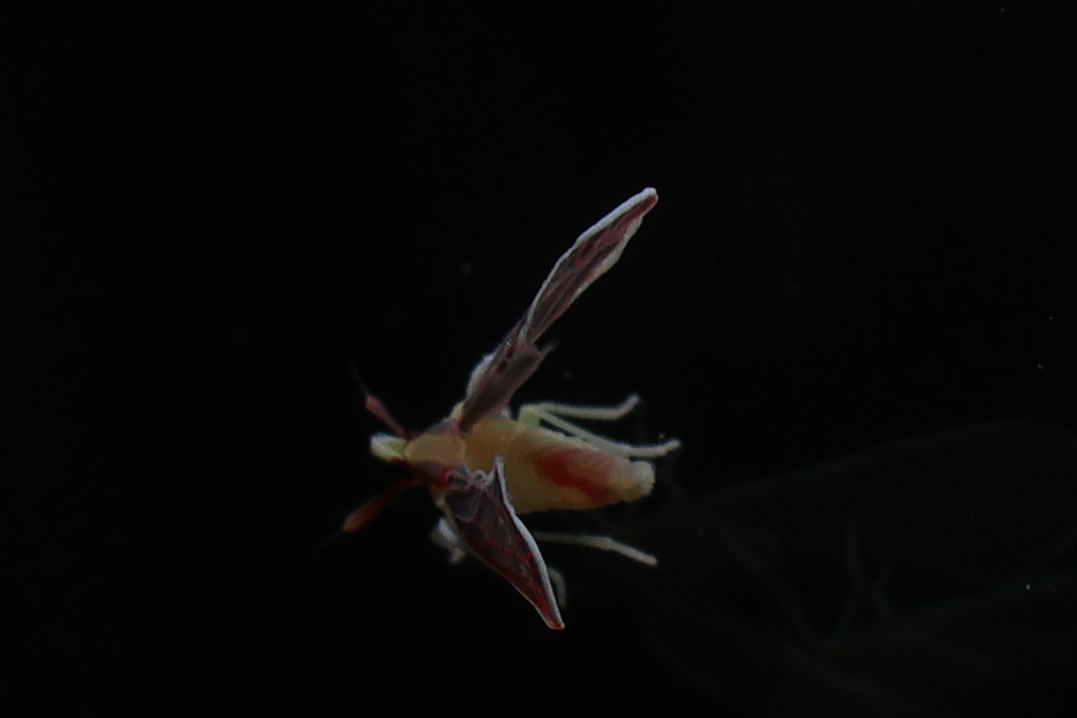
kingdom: Animalia
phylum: Arthropoda
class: Insecta
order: Hemiptera
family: Derbidae
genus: Anotia
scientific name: Anotia firebugia
